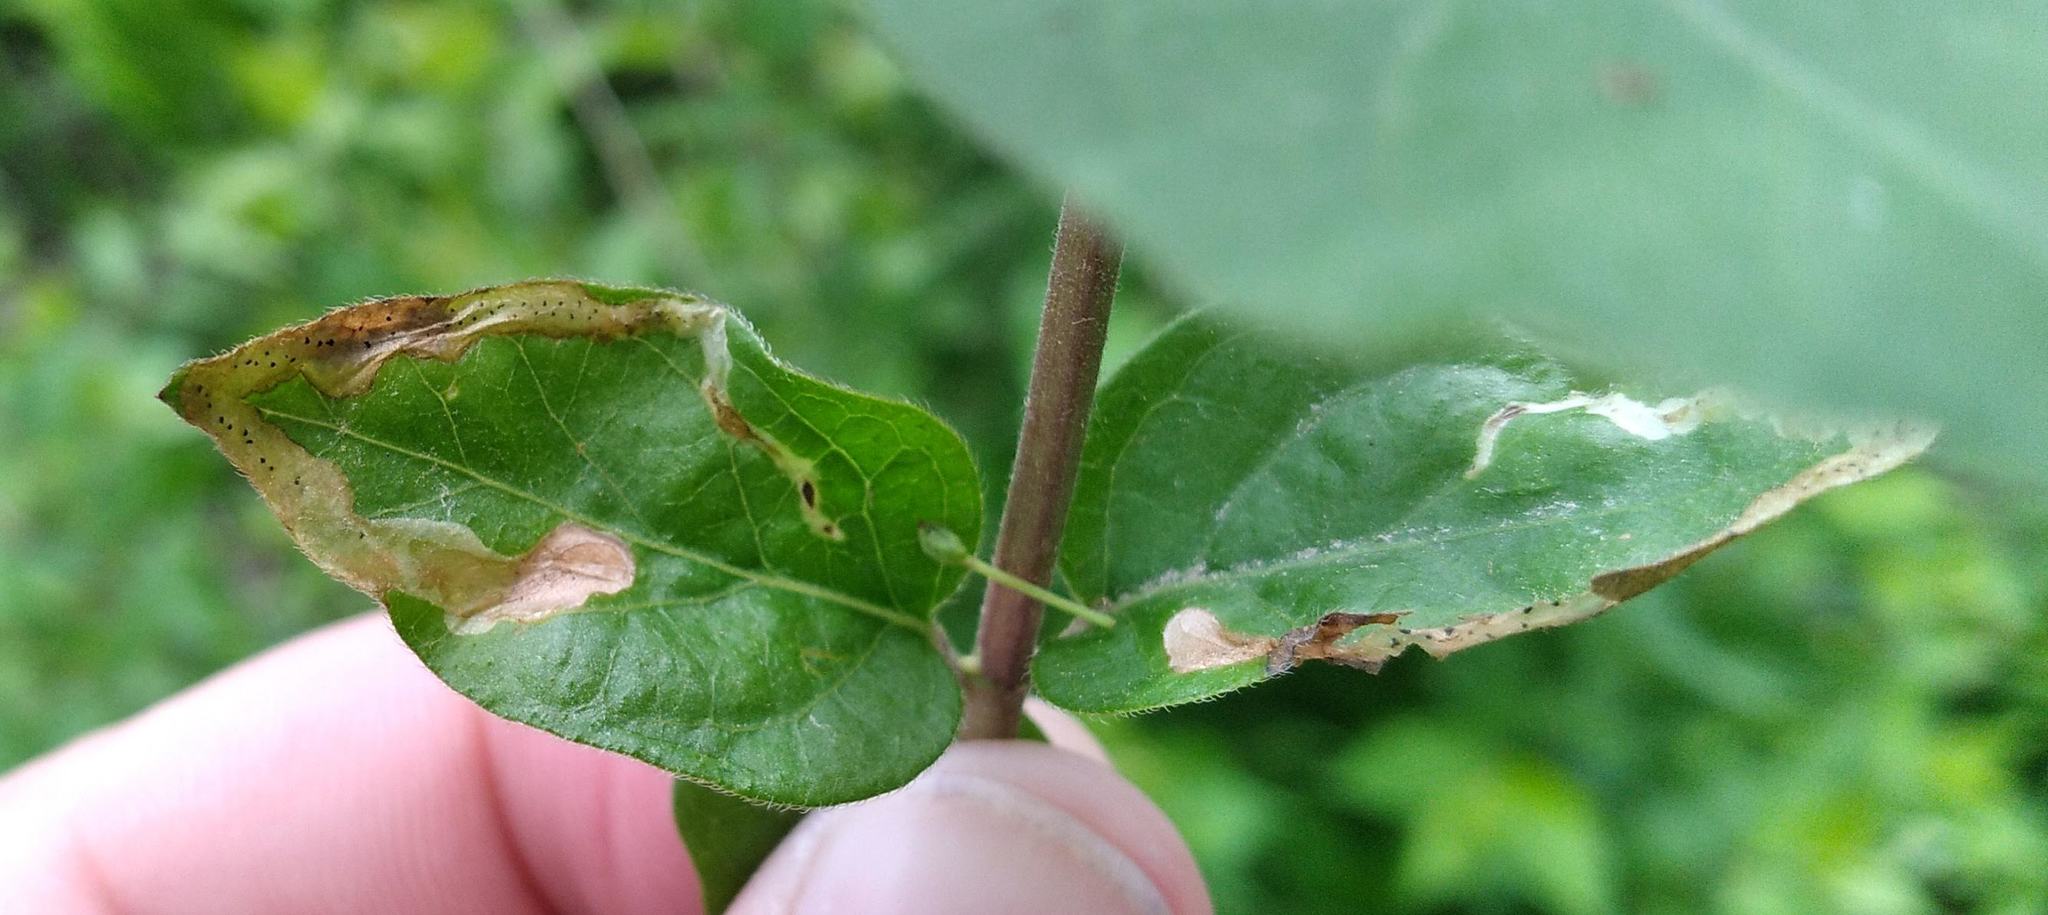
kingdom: Animalia
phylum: Arthropoda
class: Insecta
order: Diptera
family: Agromyzidae
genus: Aulagromyza
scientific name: Aulagromyza cornigera
